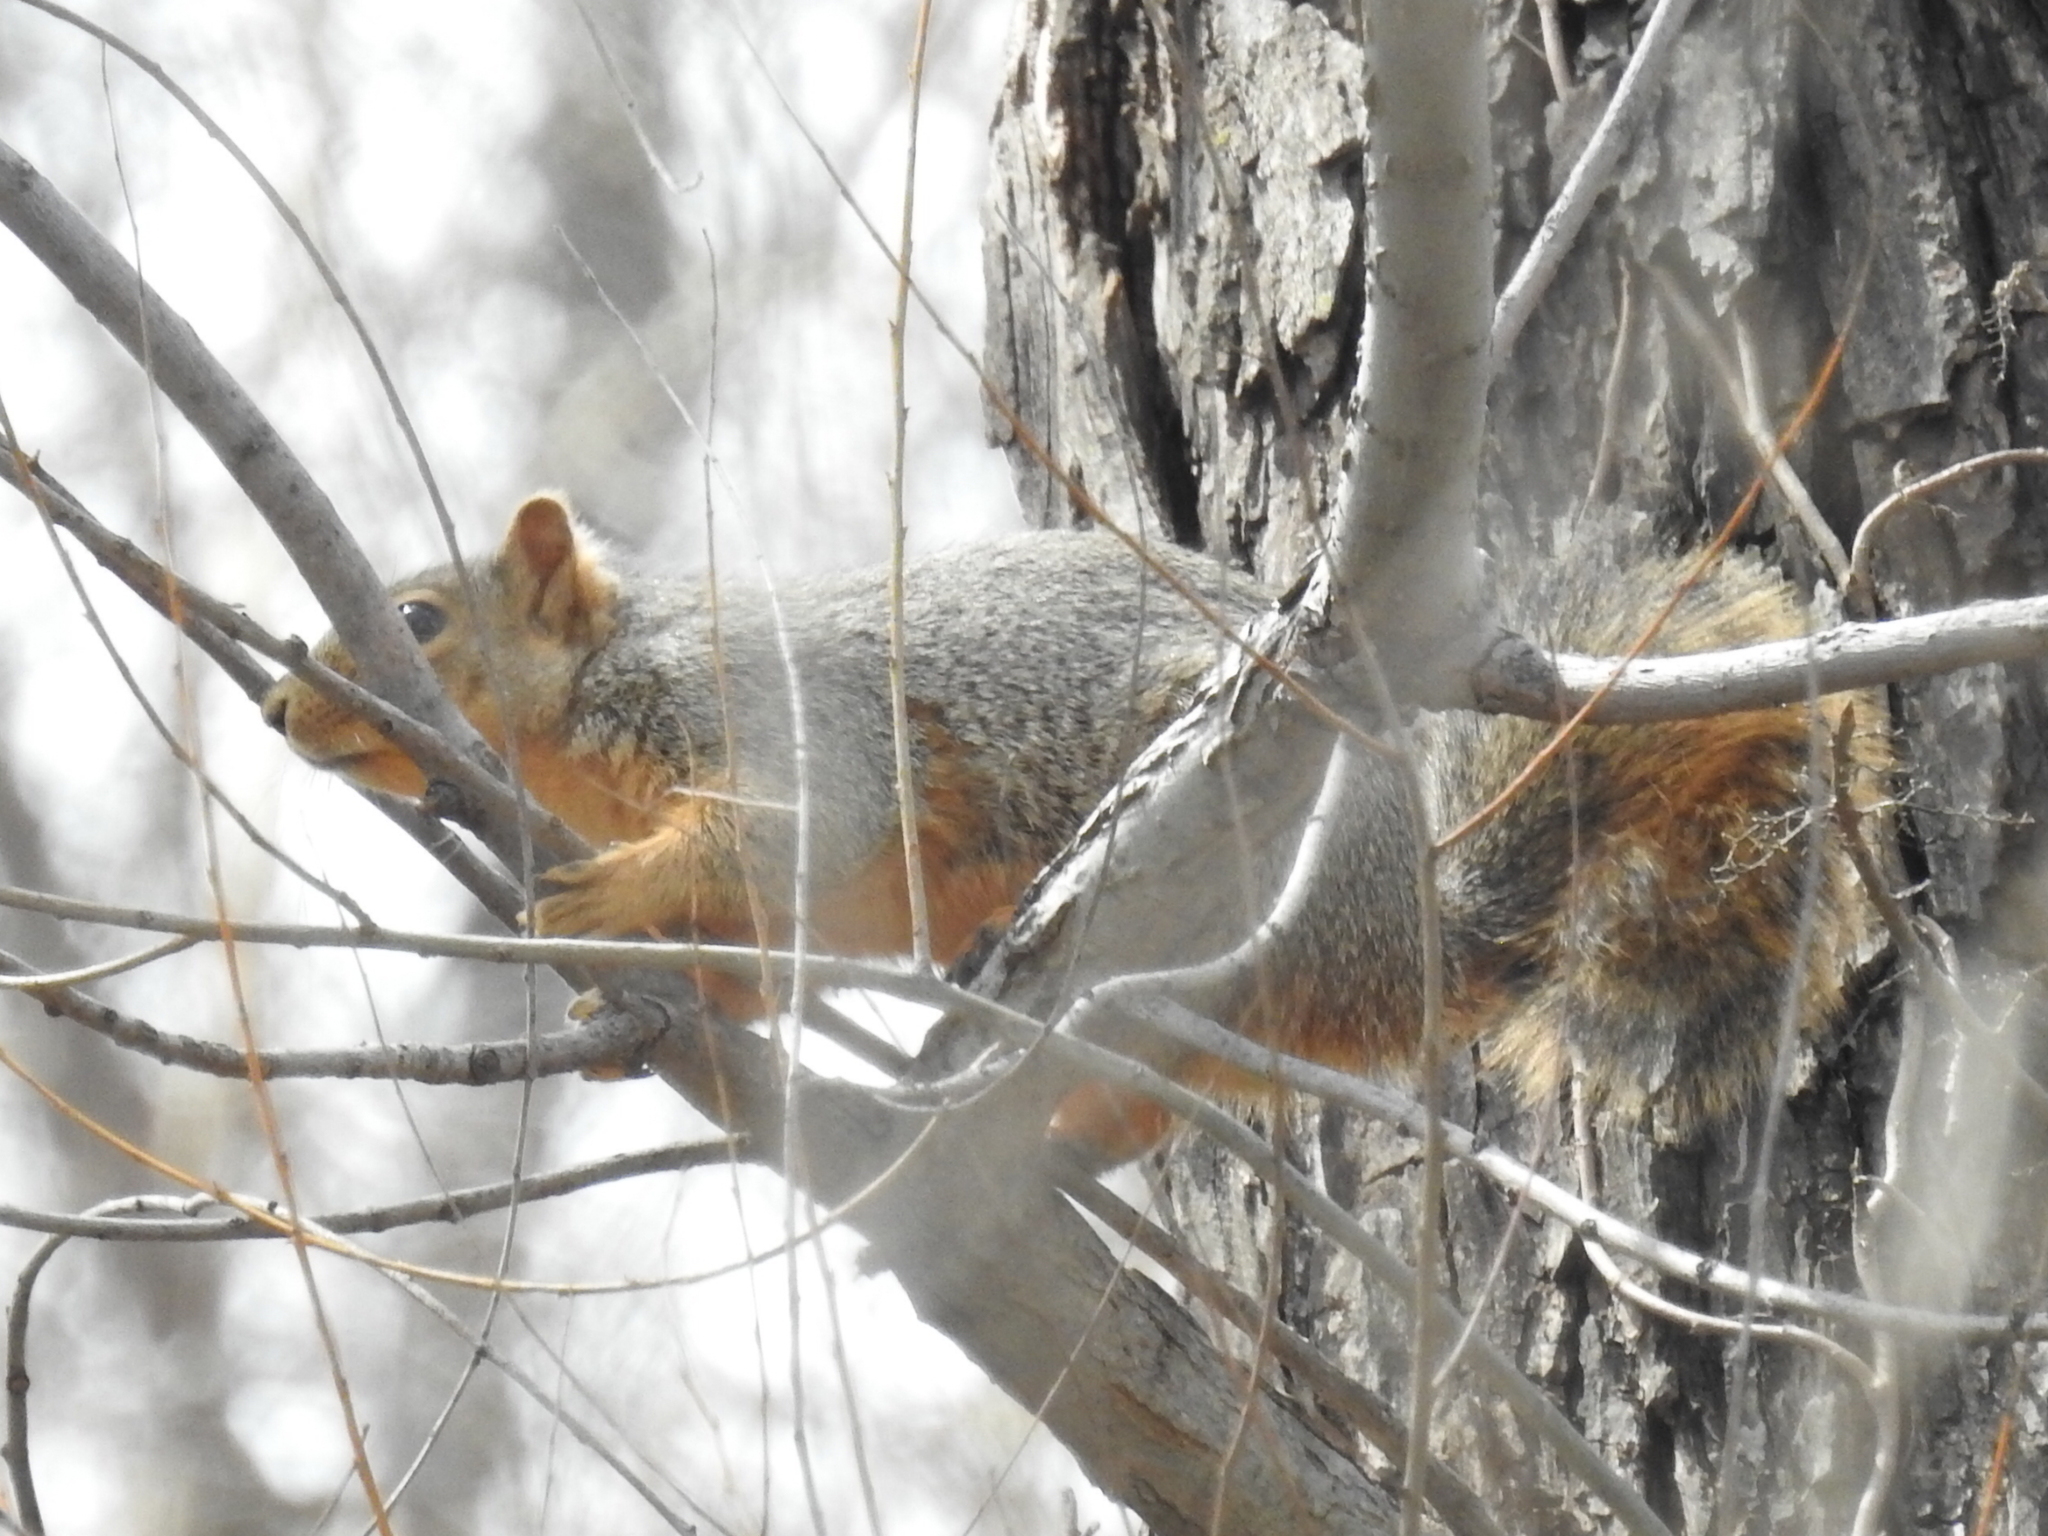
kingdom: Animalia
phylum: Chordata
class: Mammalia
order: Rodentia
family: Sciuridae
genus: Sciurus
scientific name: Sciurus niger
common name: Fox squirrel
